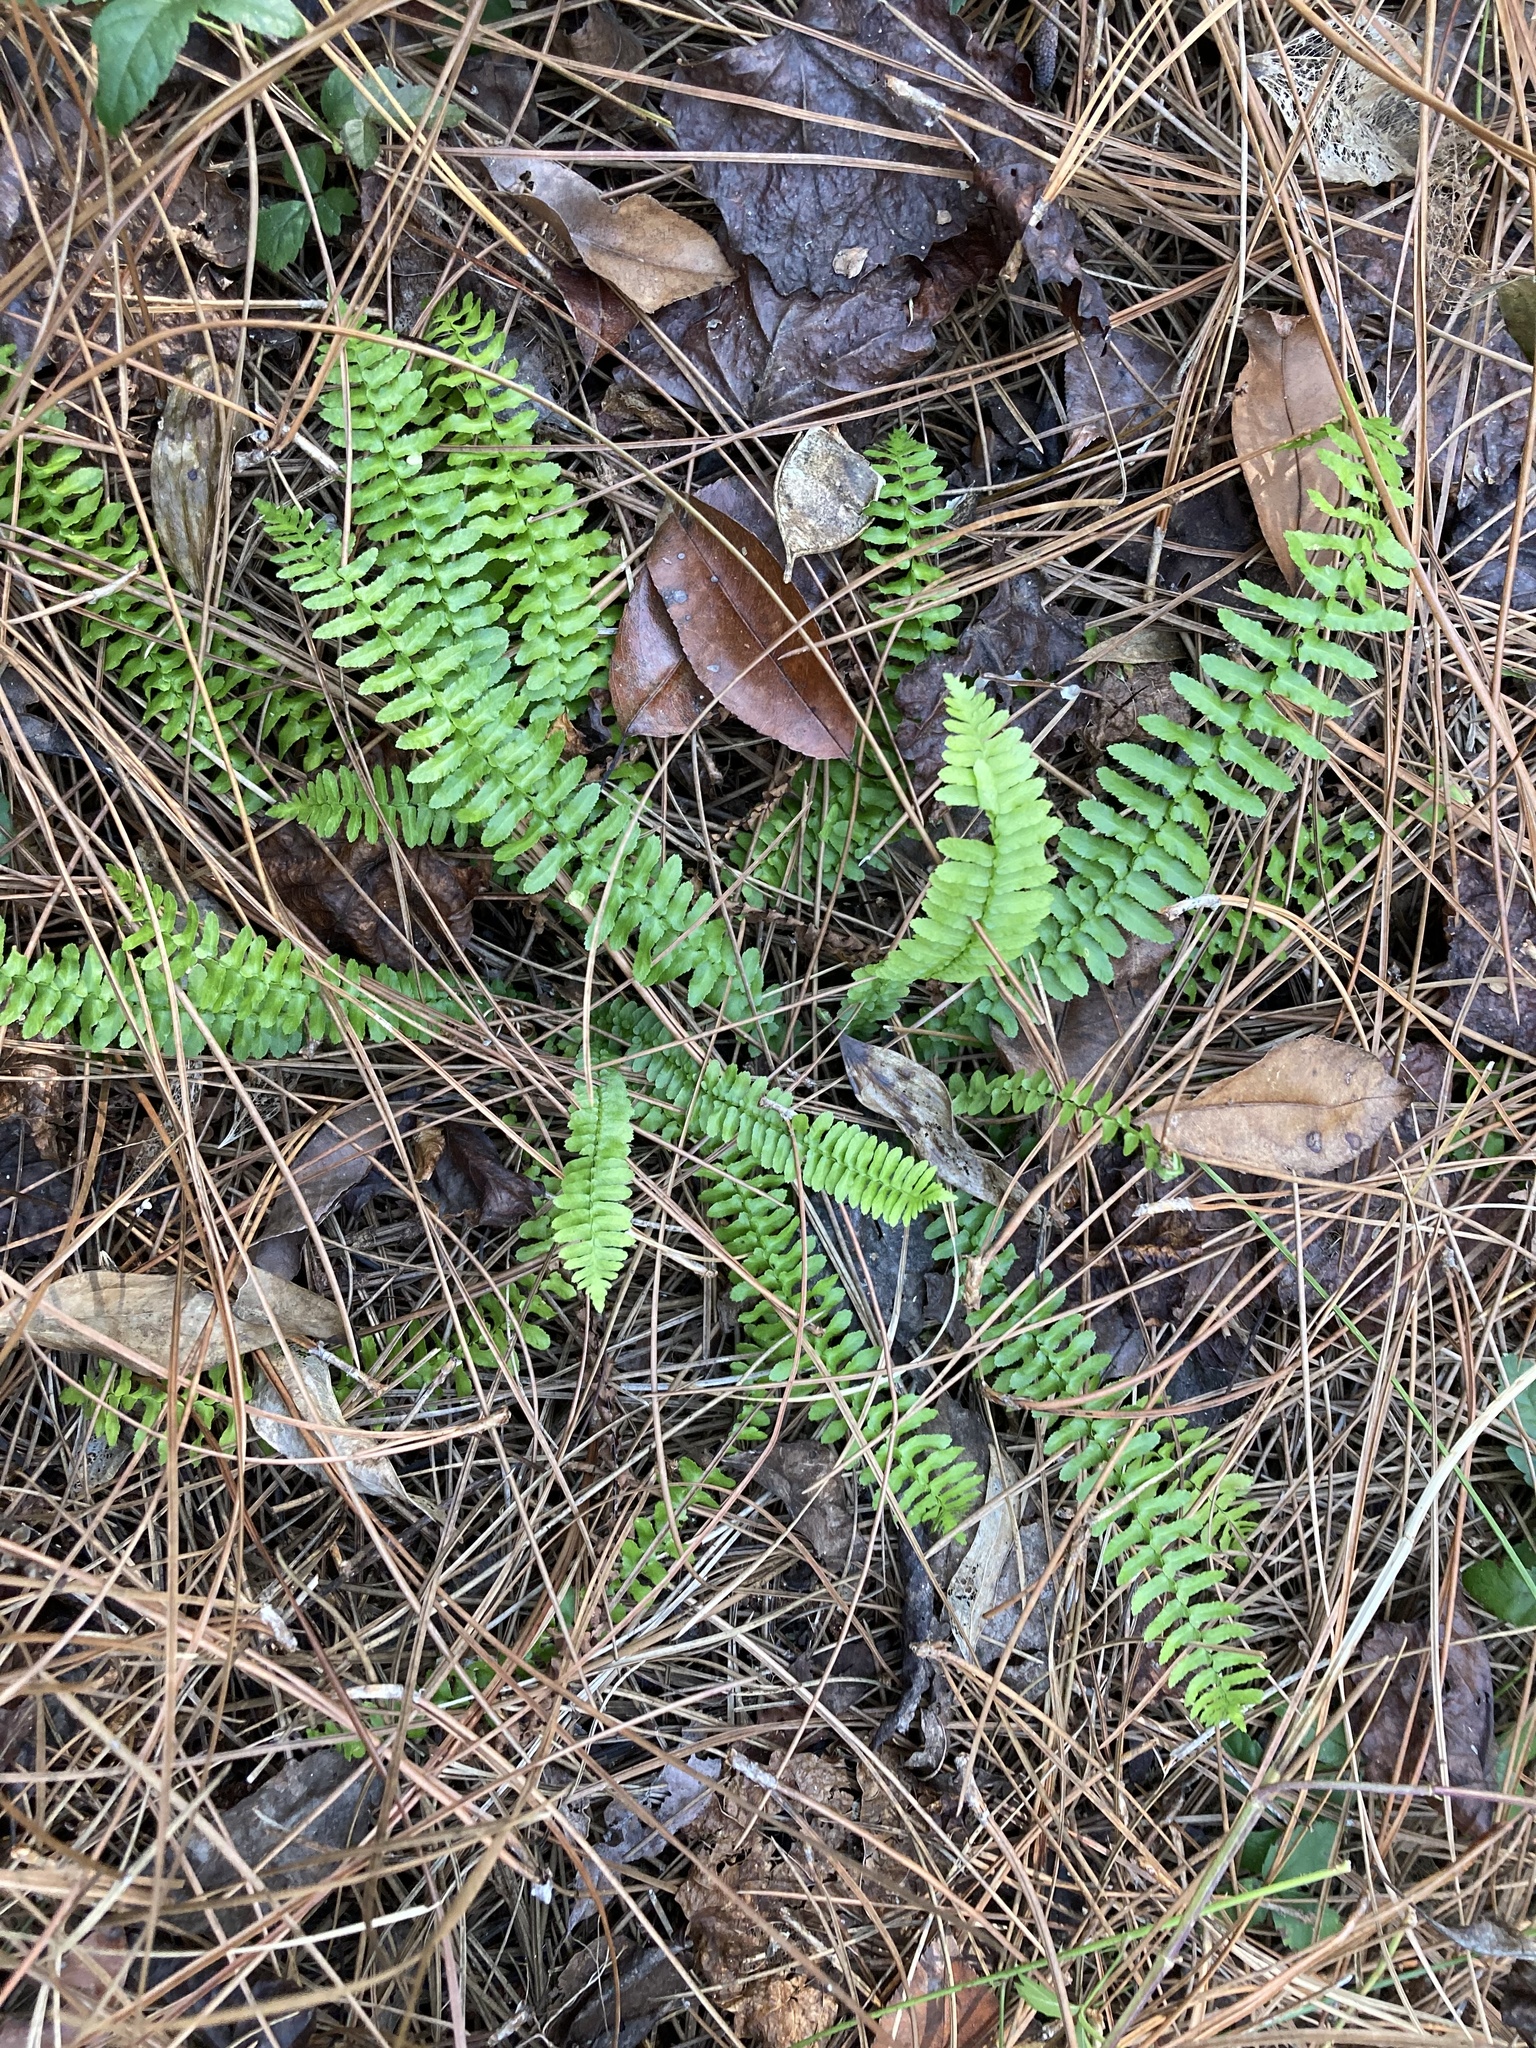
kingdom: Plantae
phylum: Tracheophyta
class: Polypodiopsida
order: Polypodiales
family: Aspleniaceae
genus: Asplenium
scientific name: Asplenium platyneuron
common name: Ebony spleenwort
